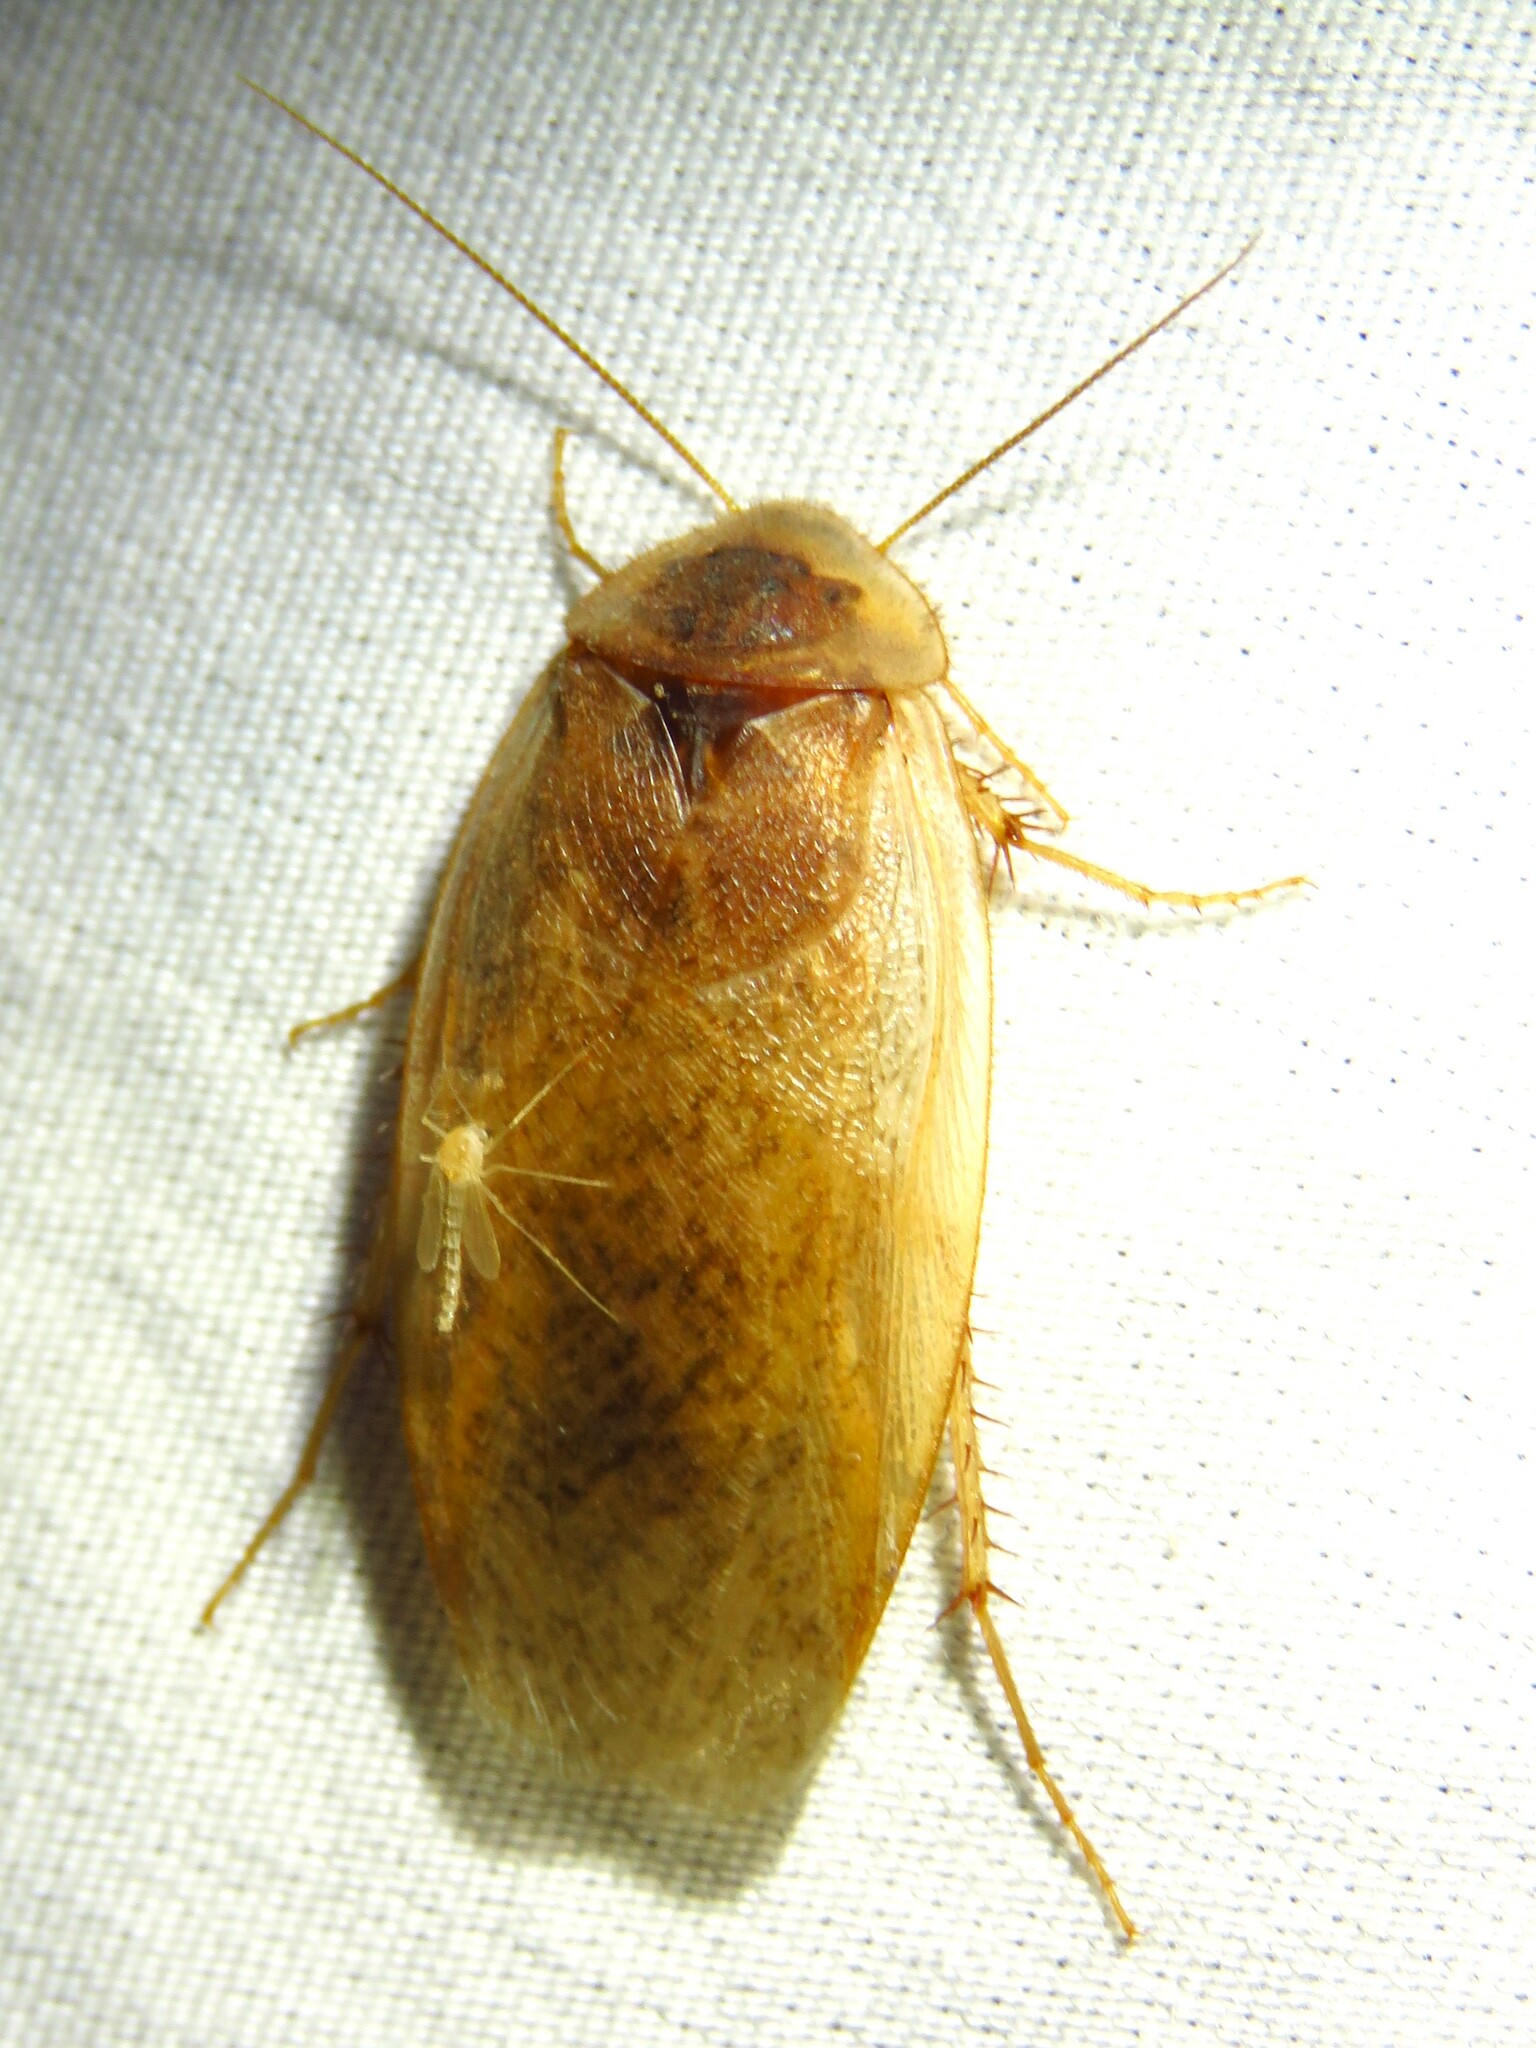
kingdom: Animalia
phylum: Arthropoda
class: Insecta
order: Blattodea
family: Corydiidae
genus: Arenivaga
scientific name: Arenivaga bolliana
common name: Boll's sand cockroach
